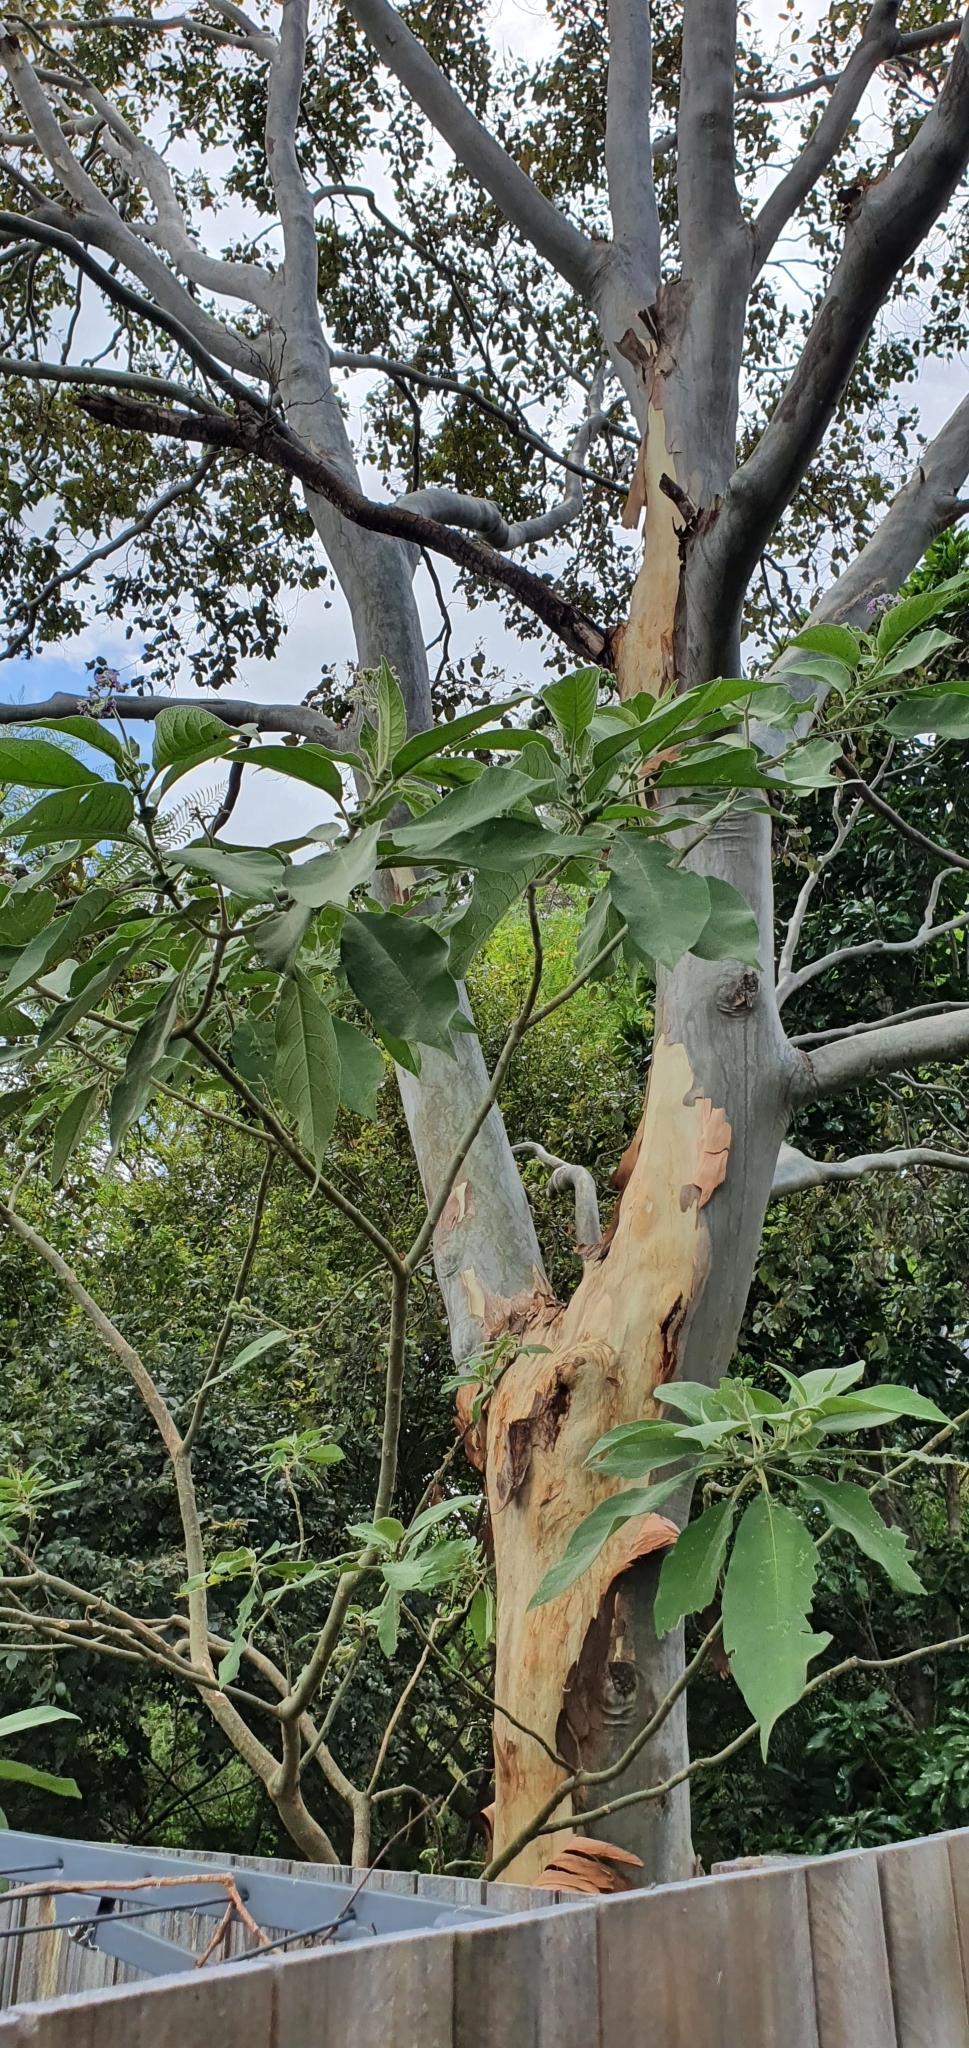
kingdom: Plantae
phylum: Tracheophyta
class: Magnoliopsida
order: Solanales
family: Solanaceae
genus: Solanum
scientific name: Solanum mauritianum
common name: Earleaf nightshade
